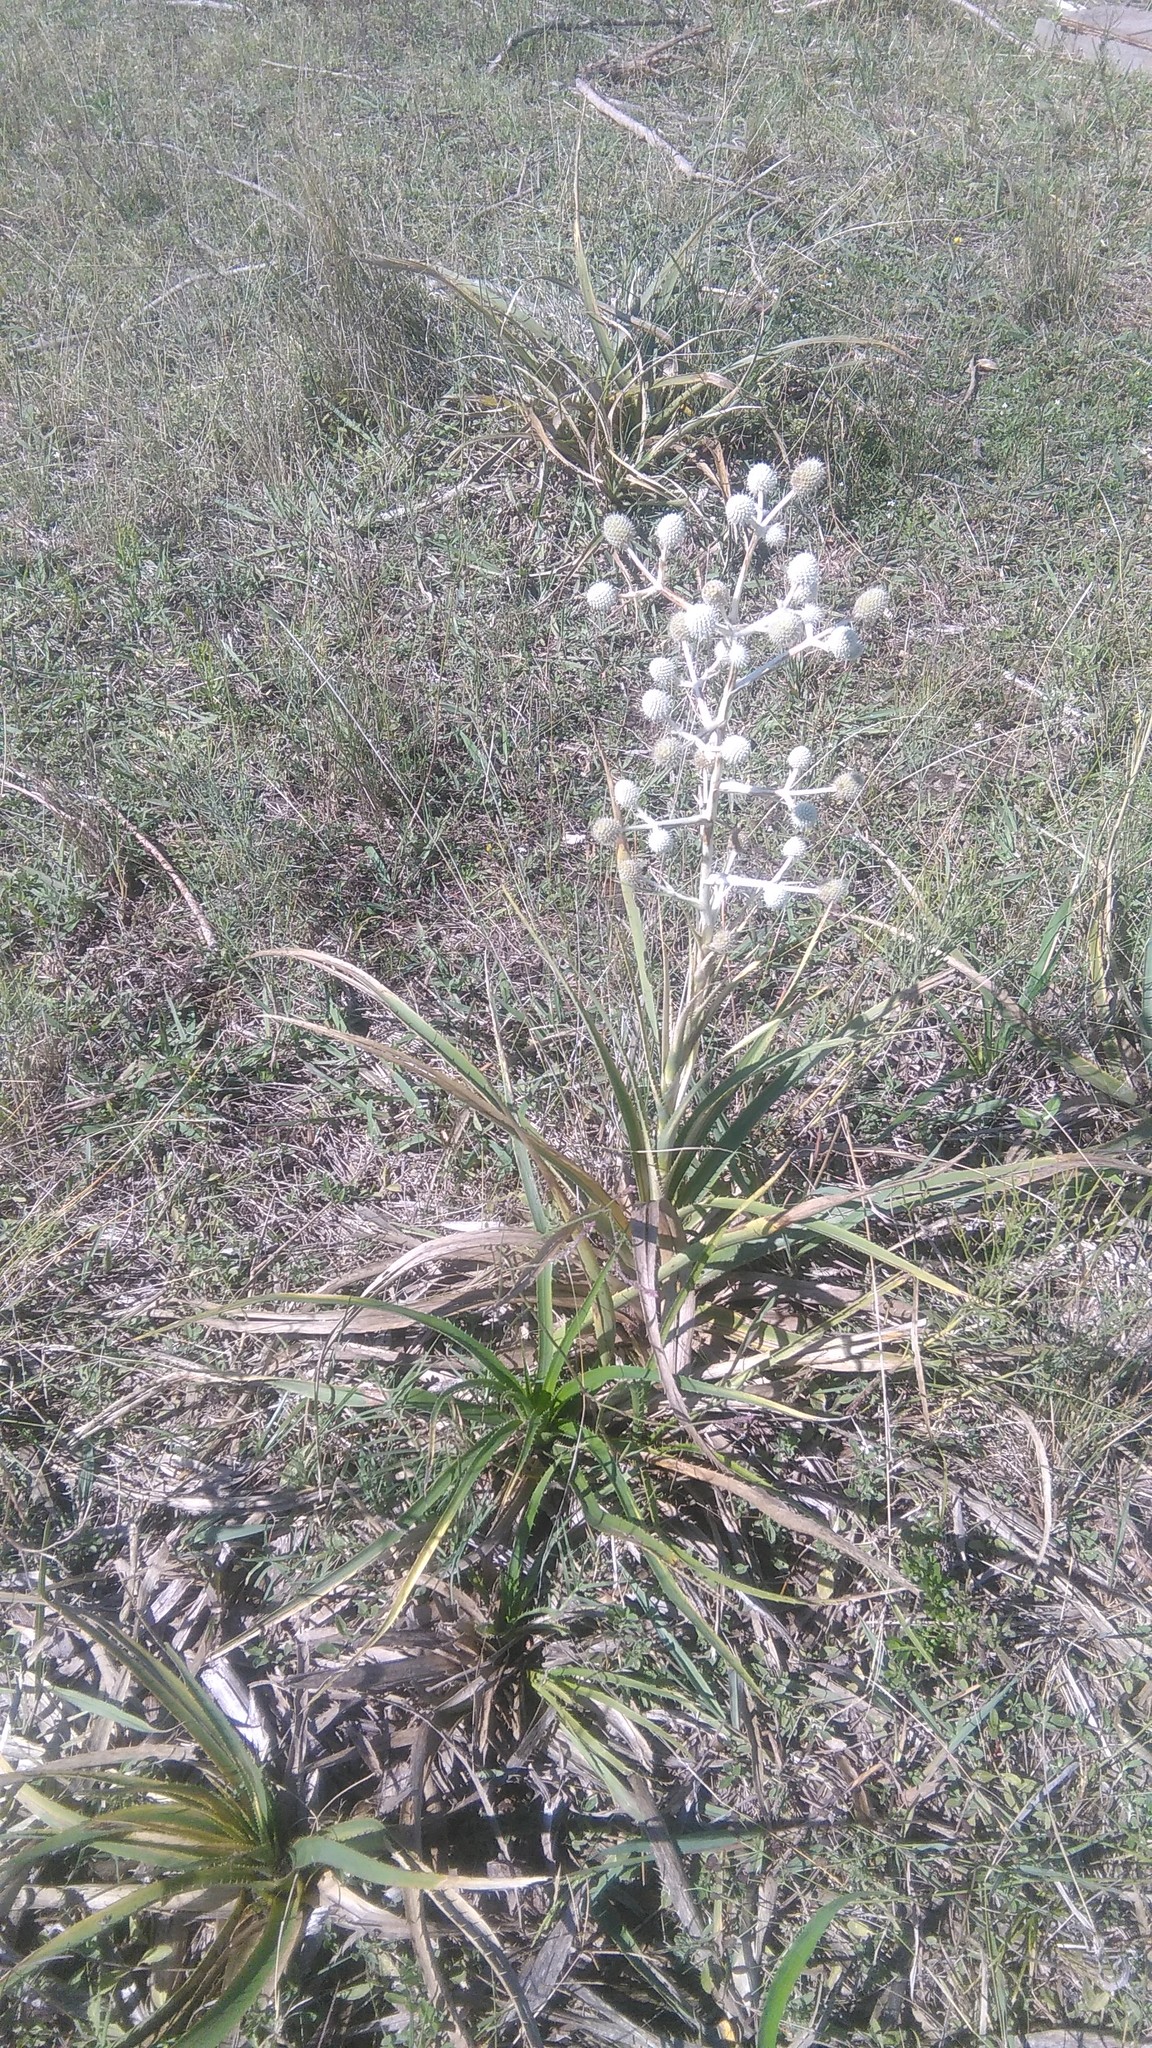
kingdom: Plantae
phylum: Tracheophyta
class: Magnoliopsida
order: Apiales
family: Apiaceae
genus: Eryngium
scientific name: Eryngium horridum
